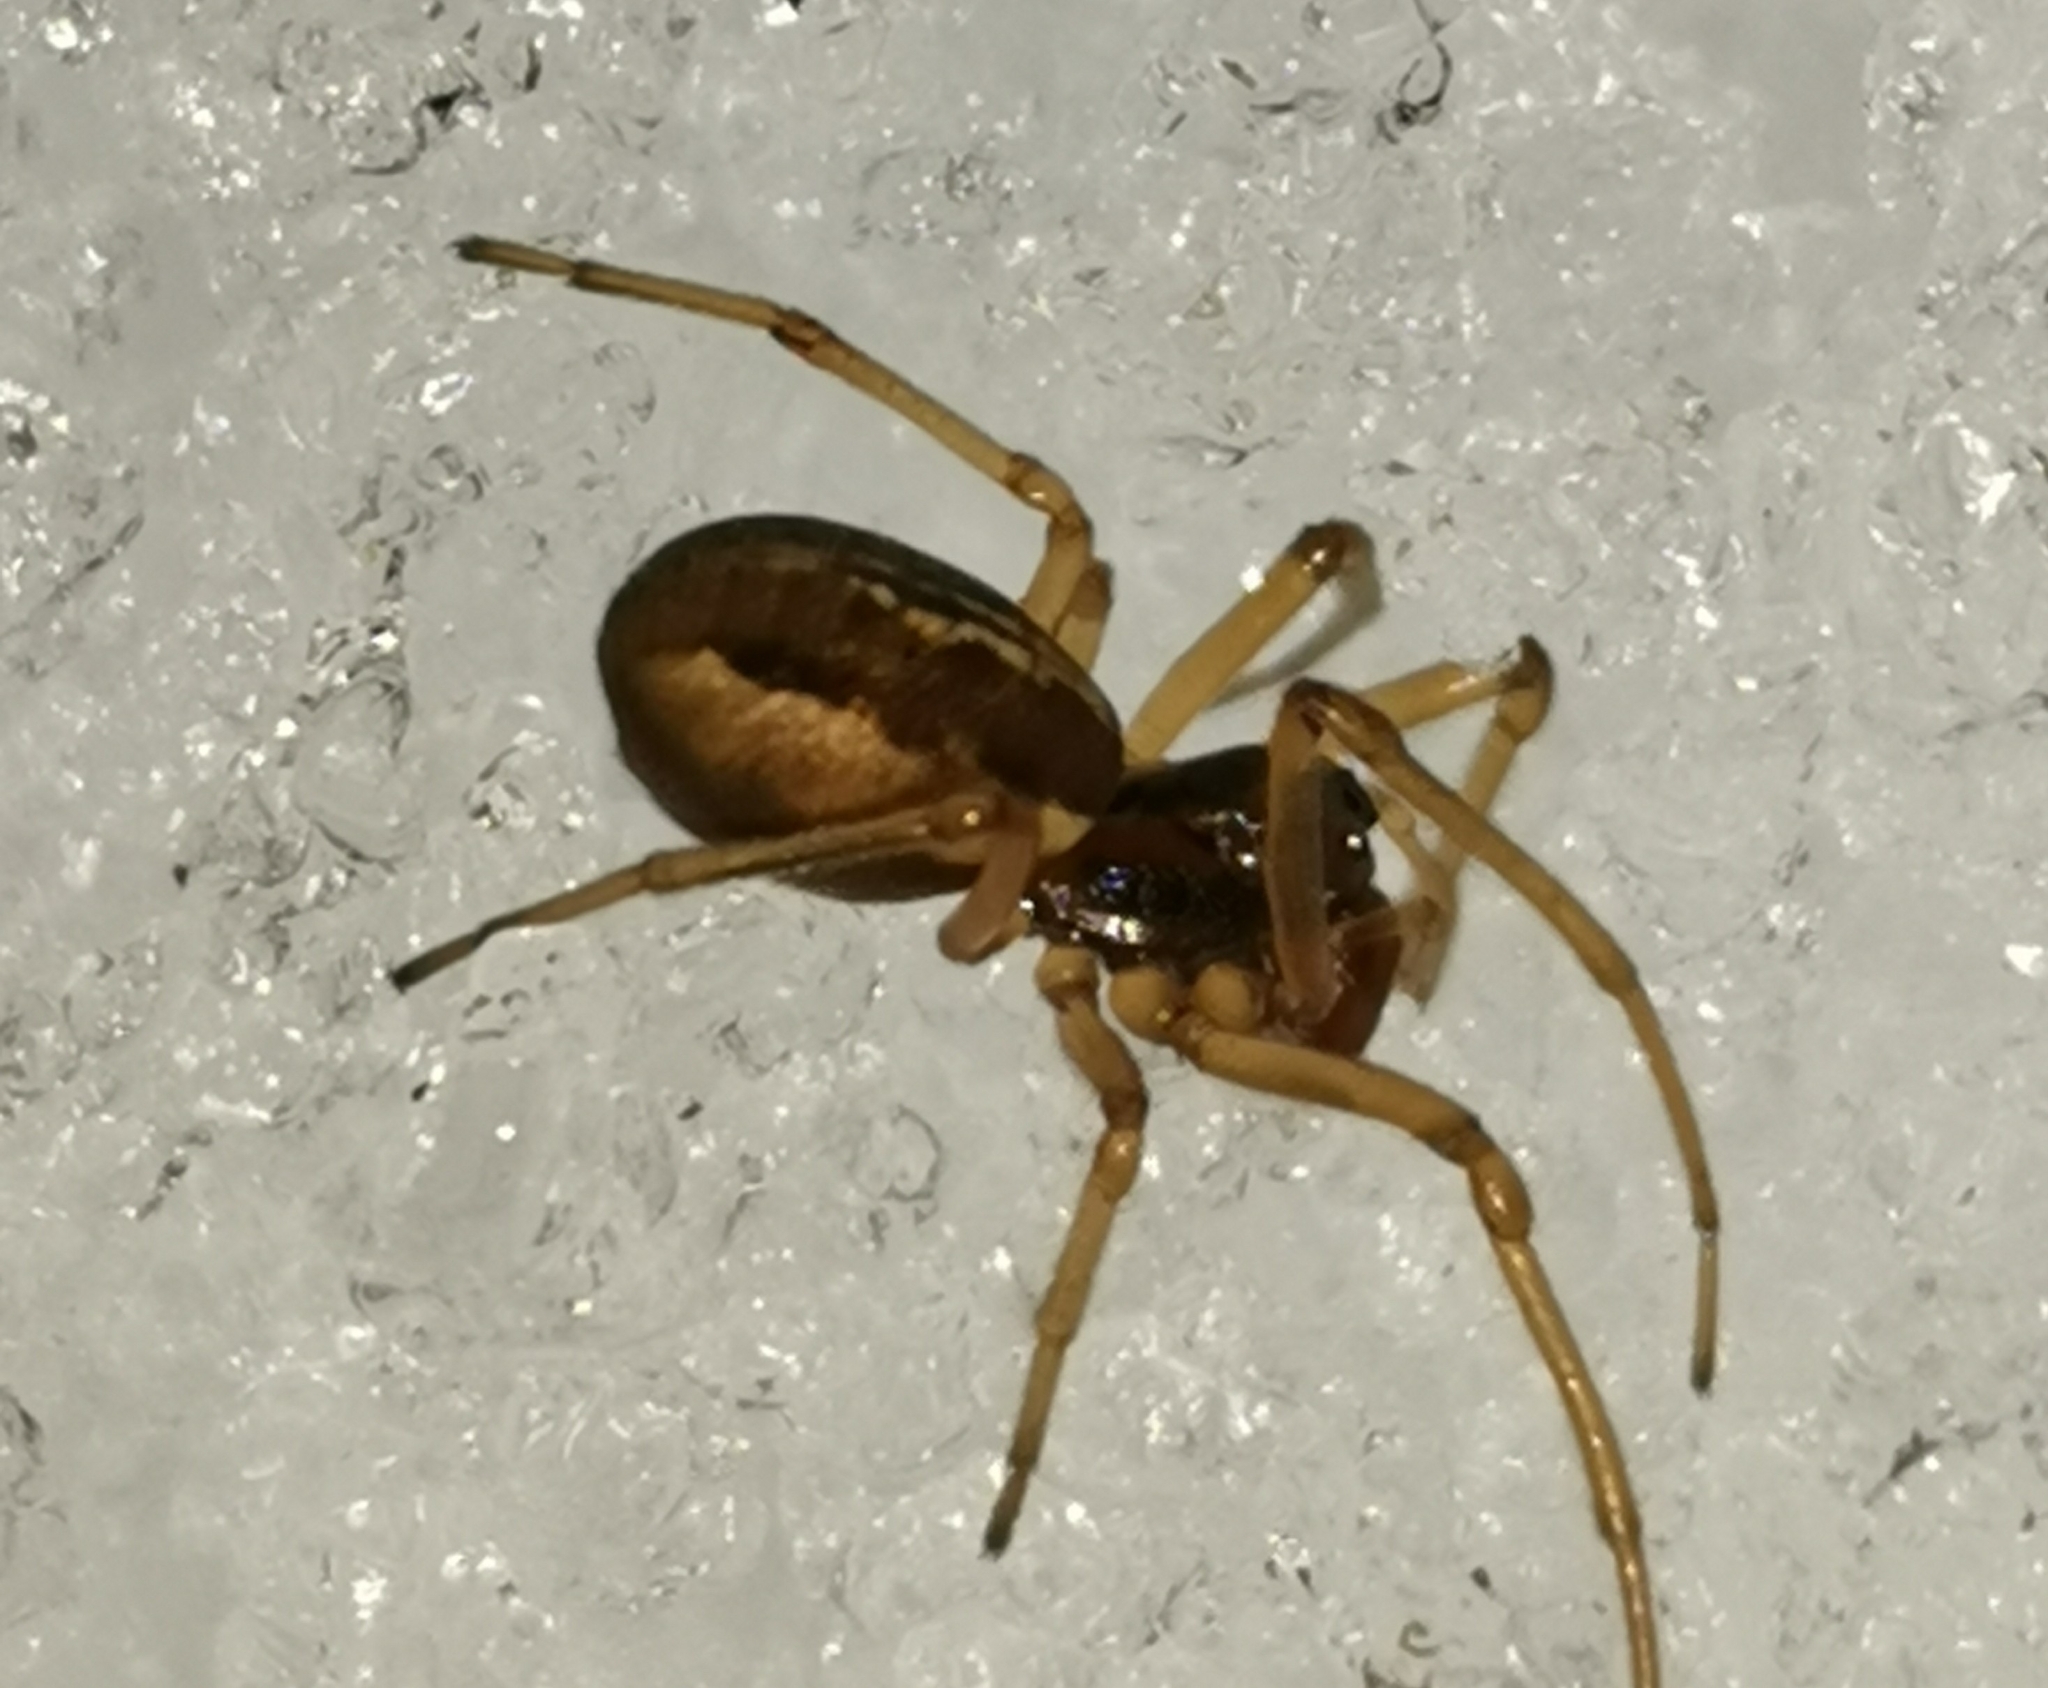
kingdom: Animalia
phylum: Arthropoda
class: Arachnida
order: Araneae
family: Tetragnathidae
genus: Pachygnatha
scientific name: Pachygnatha degeeri
